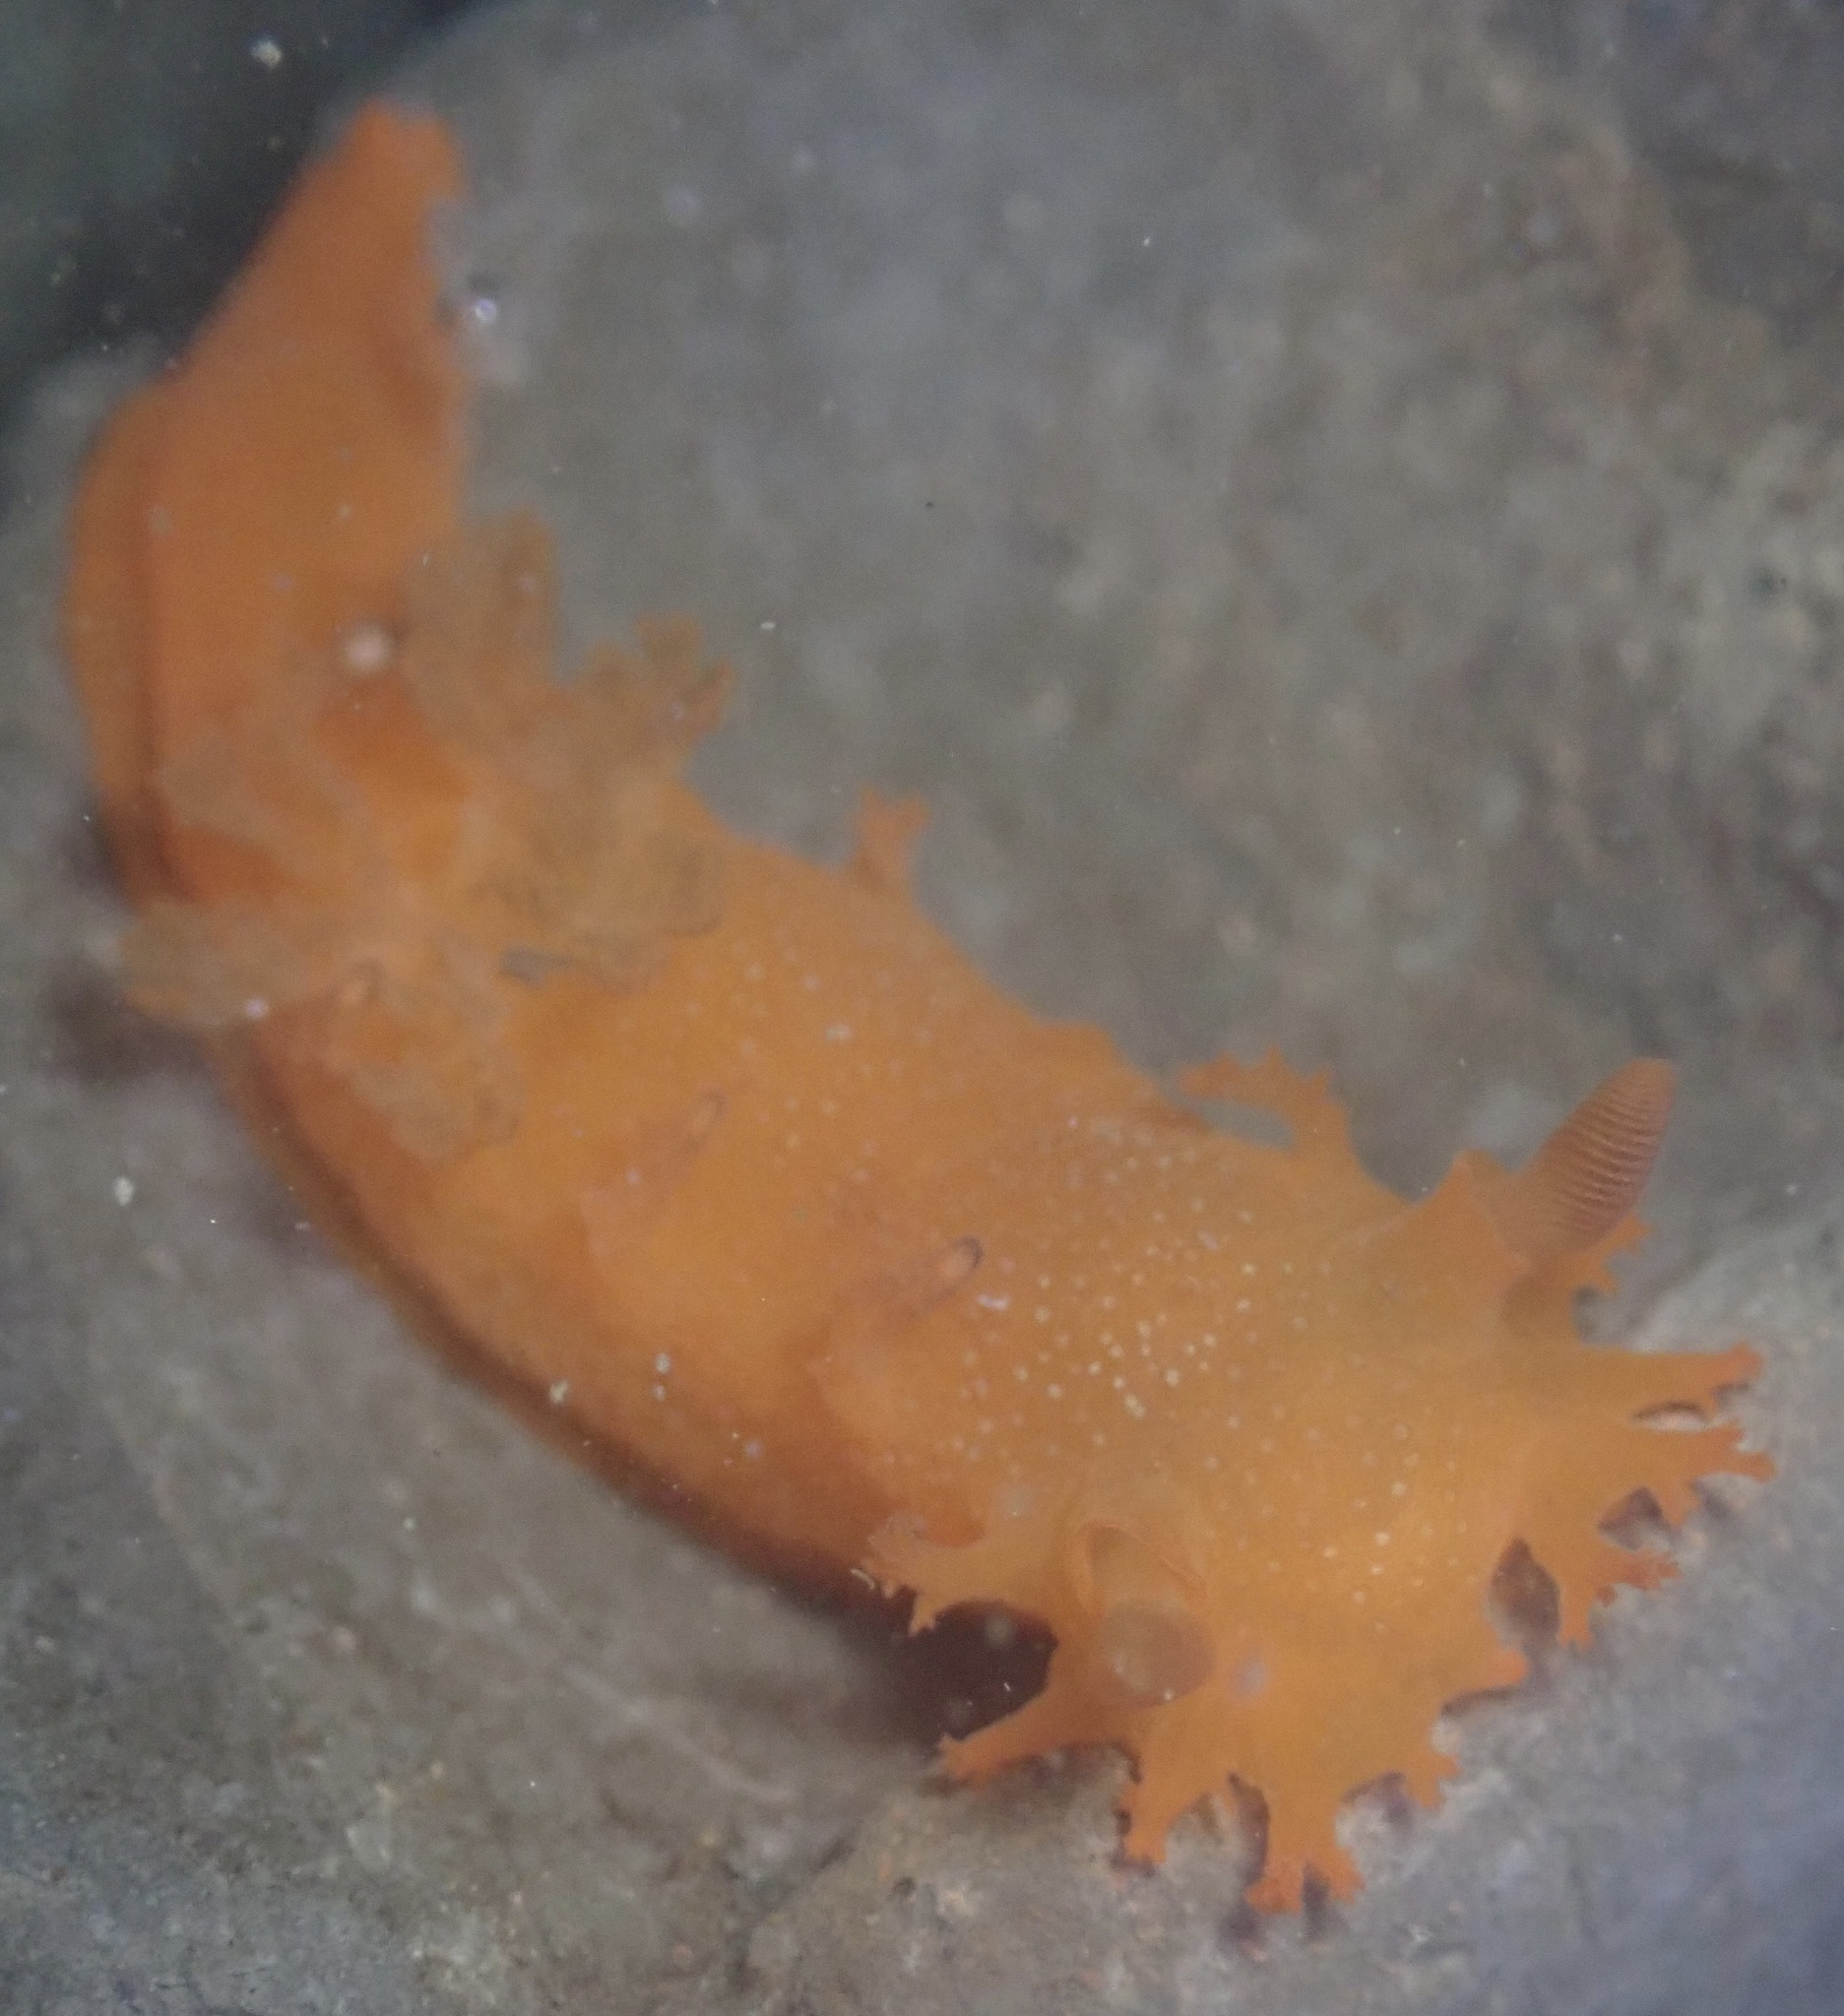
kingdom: Animalia
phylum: Mollusca
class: Gastropoda
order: Nudibranchia
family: Polyceridae
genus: Triopha
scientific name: Triopha maculata
